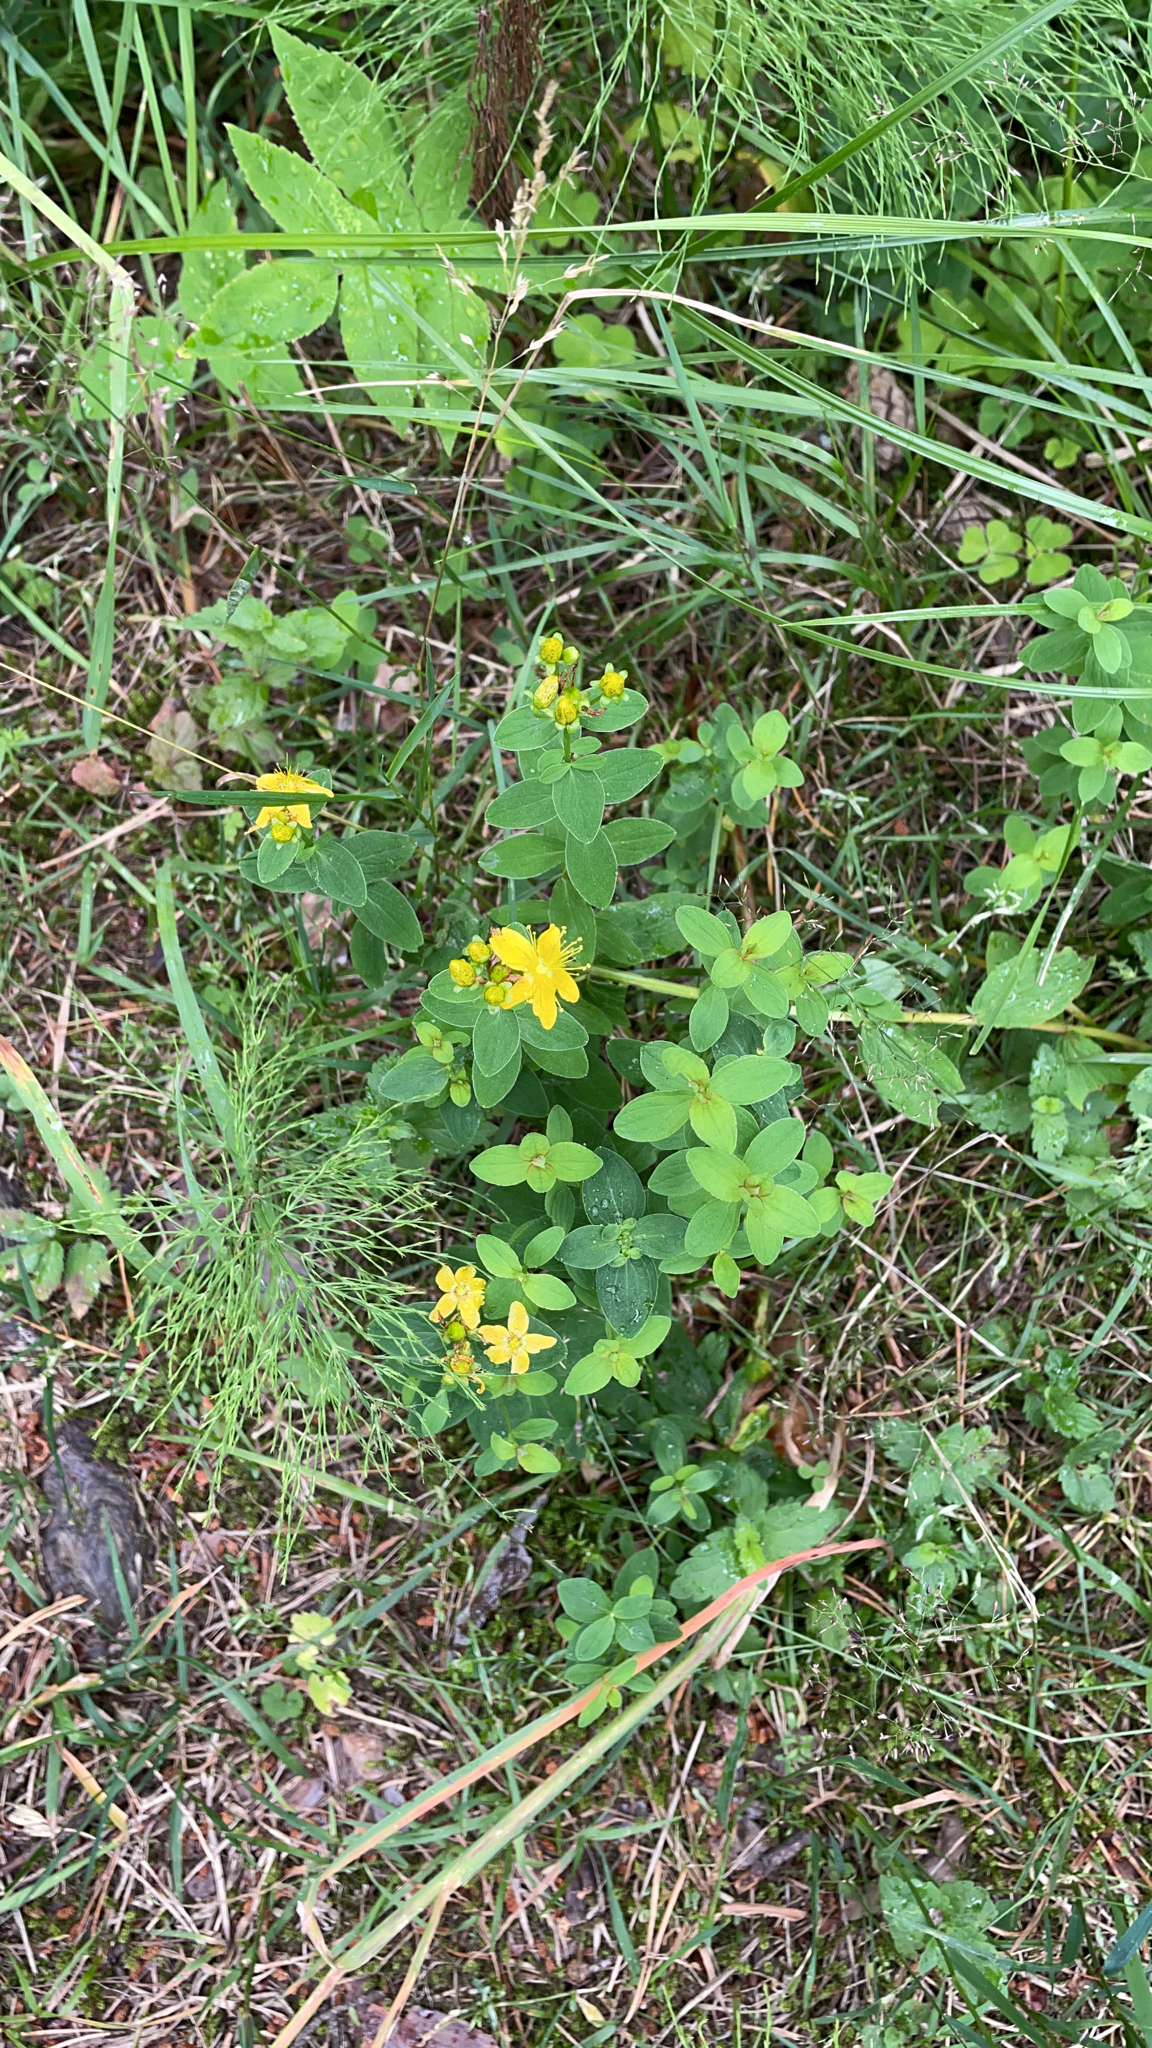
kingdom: Plantae
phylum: Tracheophyta
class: Magnoliopsida
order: Malpighiales
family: Hypericaceae
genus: Hypericum
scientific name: Hypericum maculatum
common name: Imperforate st. john's-wort
